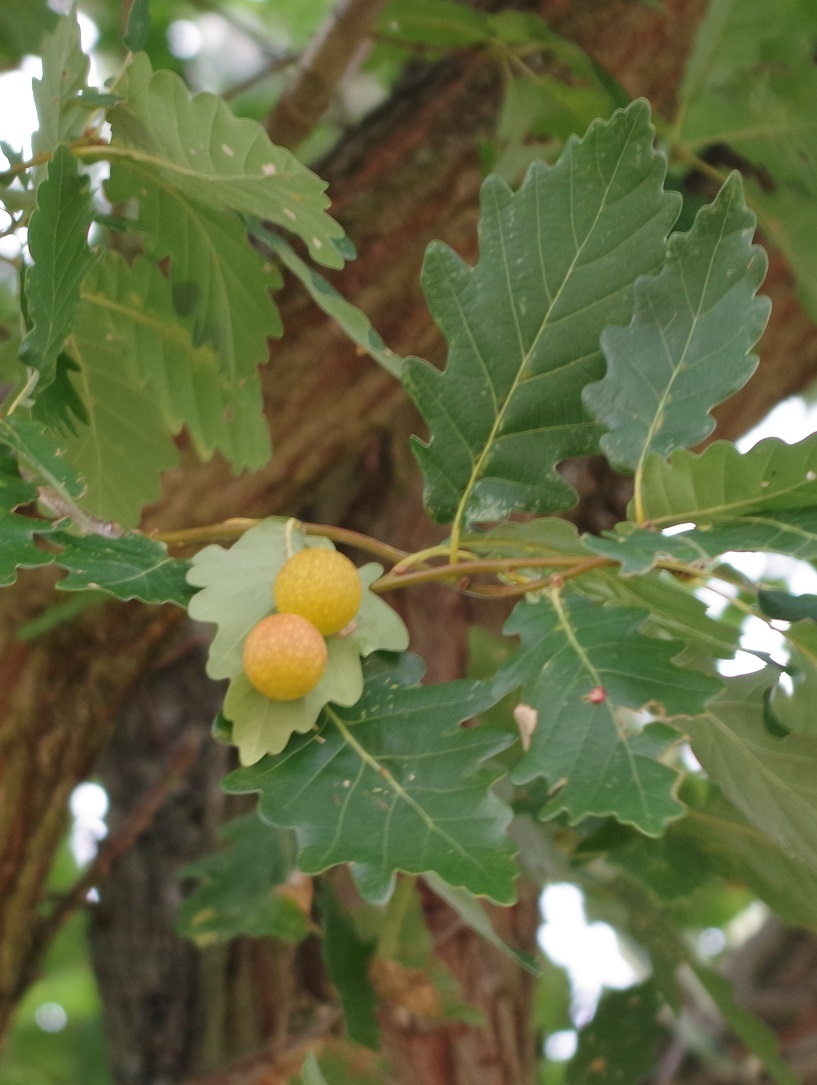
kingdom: Animalia
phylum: Arthropoda
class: Insecta
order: Hymenoptera
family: Cynipidae
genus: Cynips
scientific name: Cynips quercusfolii
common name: Cherry gall
